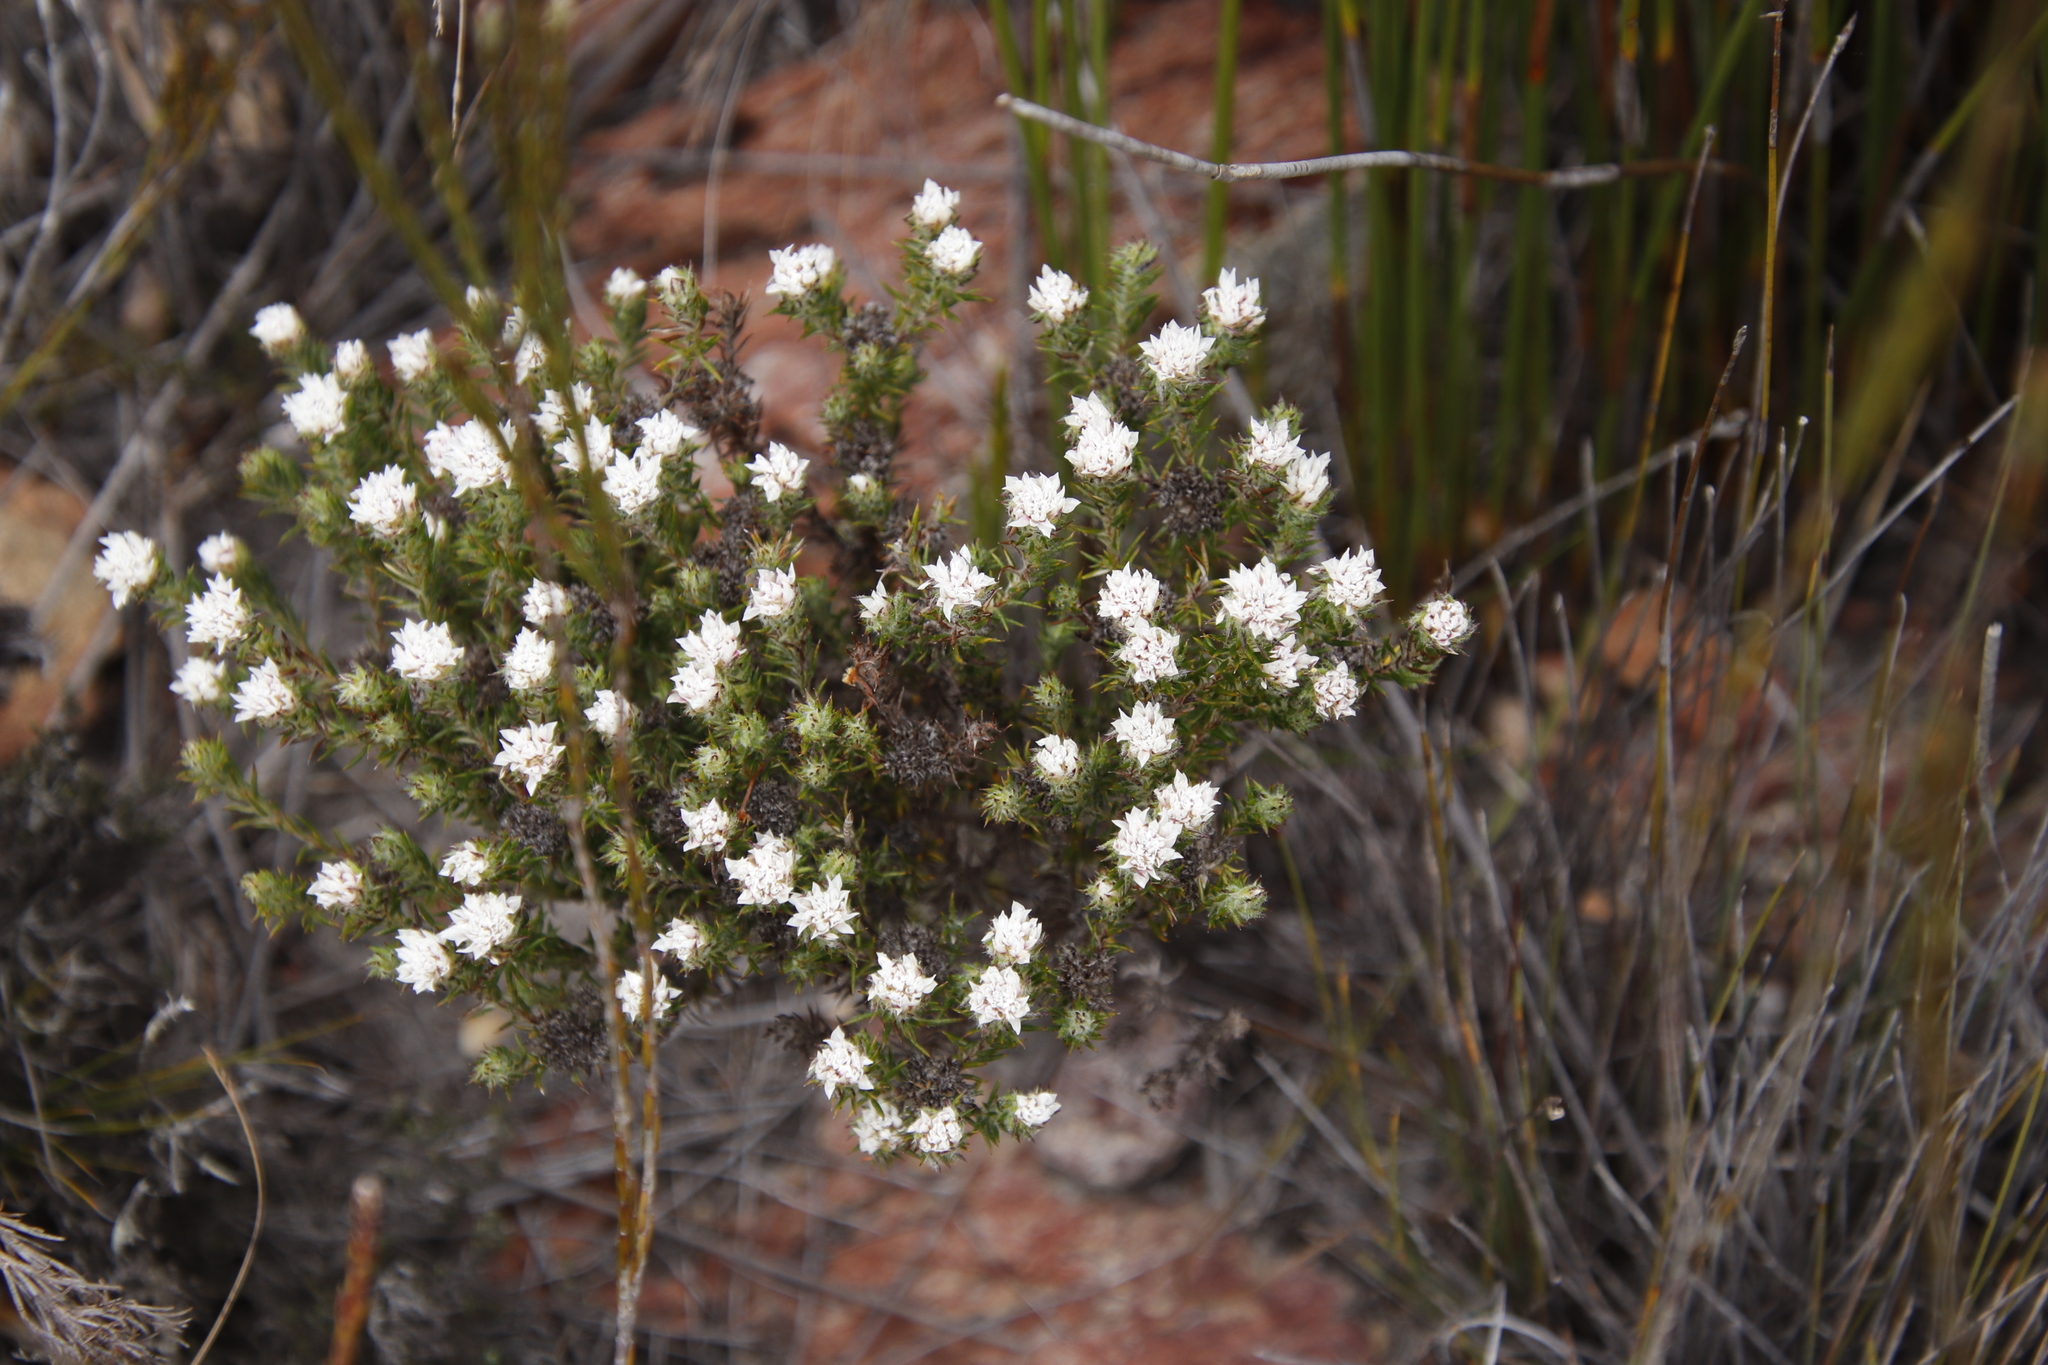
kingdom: Plantae
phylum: Tracheophyta
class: Magnoliopsida
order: Asterales
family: Asteraceae
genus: Metalasia
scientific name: Metalasia inversa
